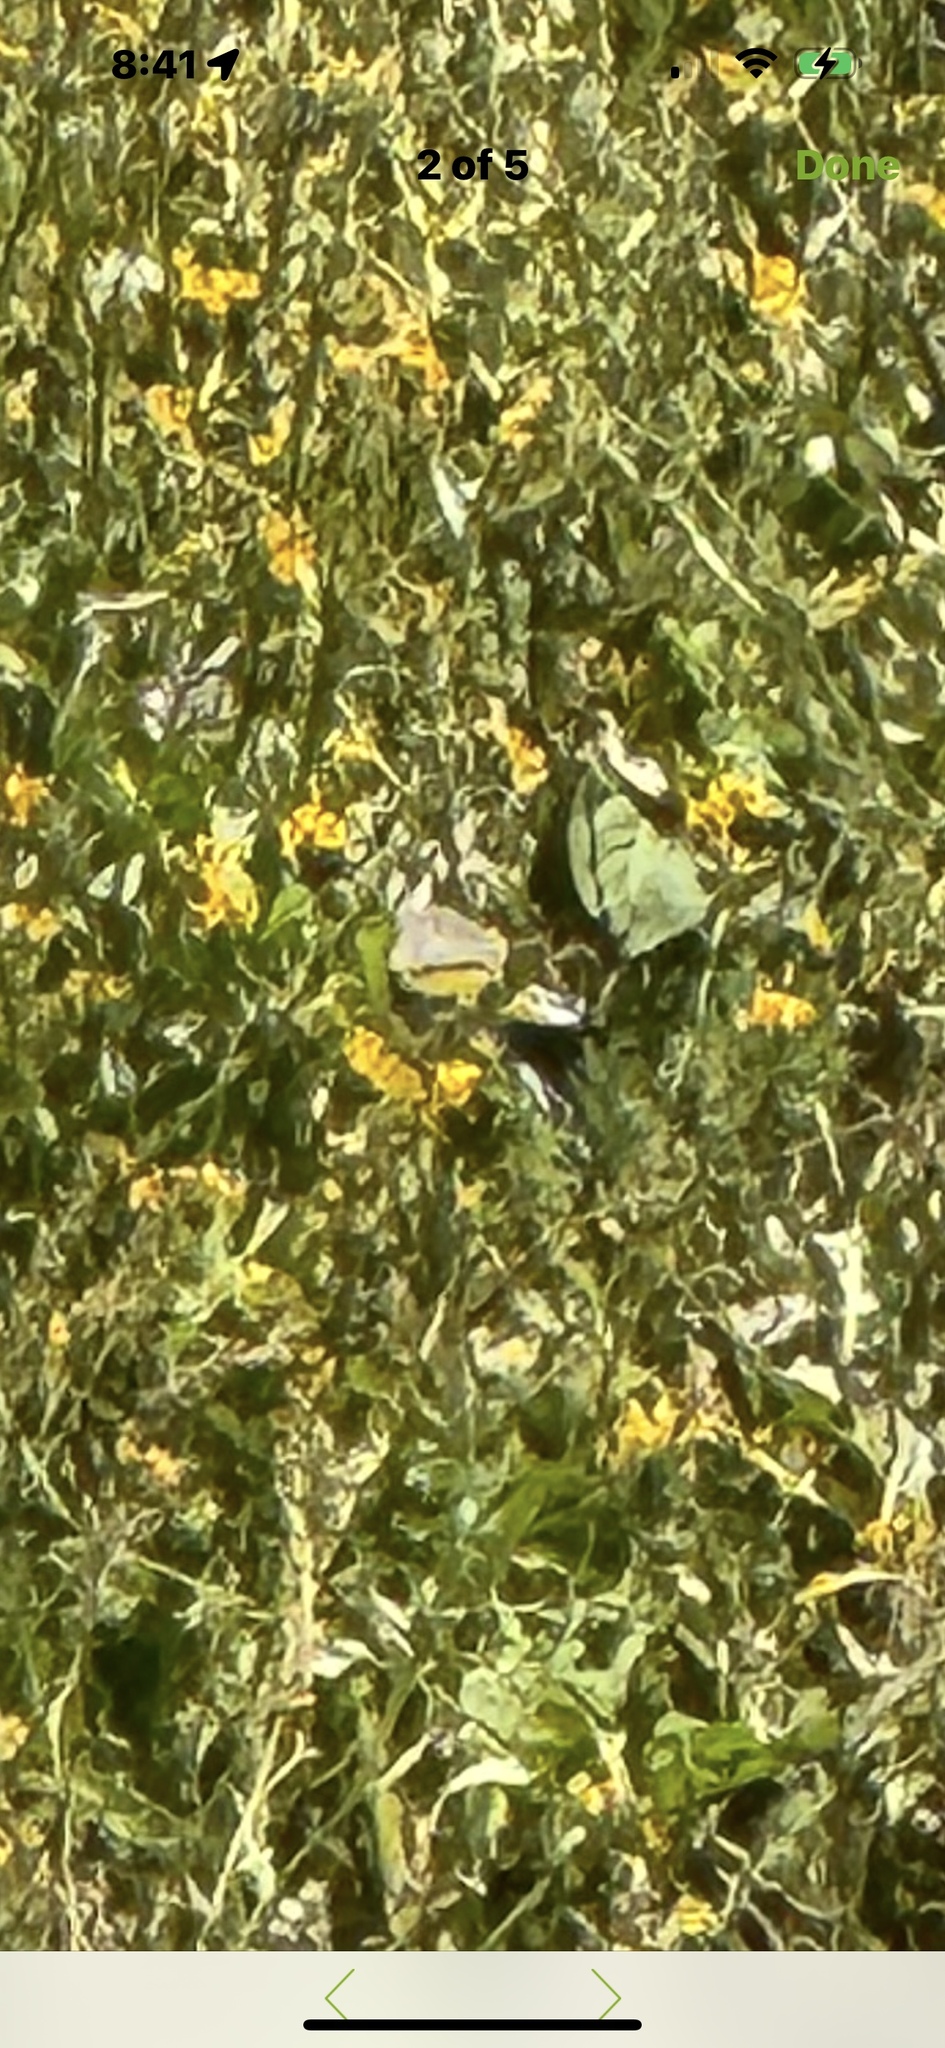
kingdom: Animalia
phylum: Chordata
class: Aves
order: Passeriformes
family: Fringillidae
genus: Spinus
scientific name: Spinus lawrencei
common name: Lawrence's goldfinch
